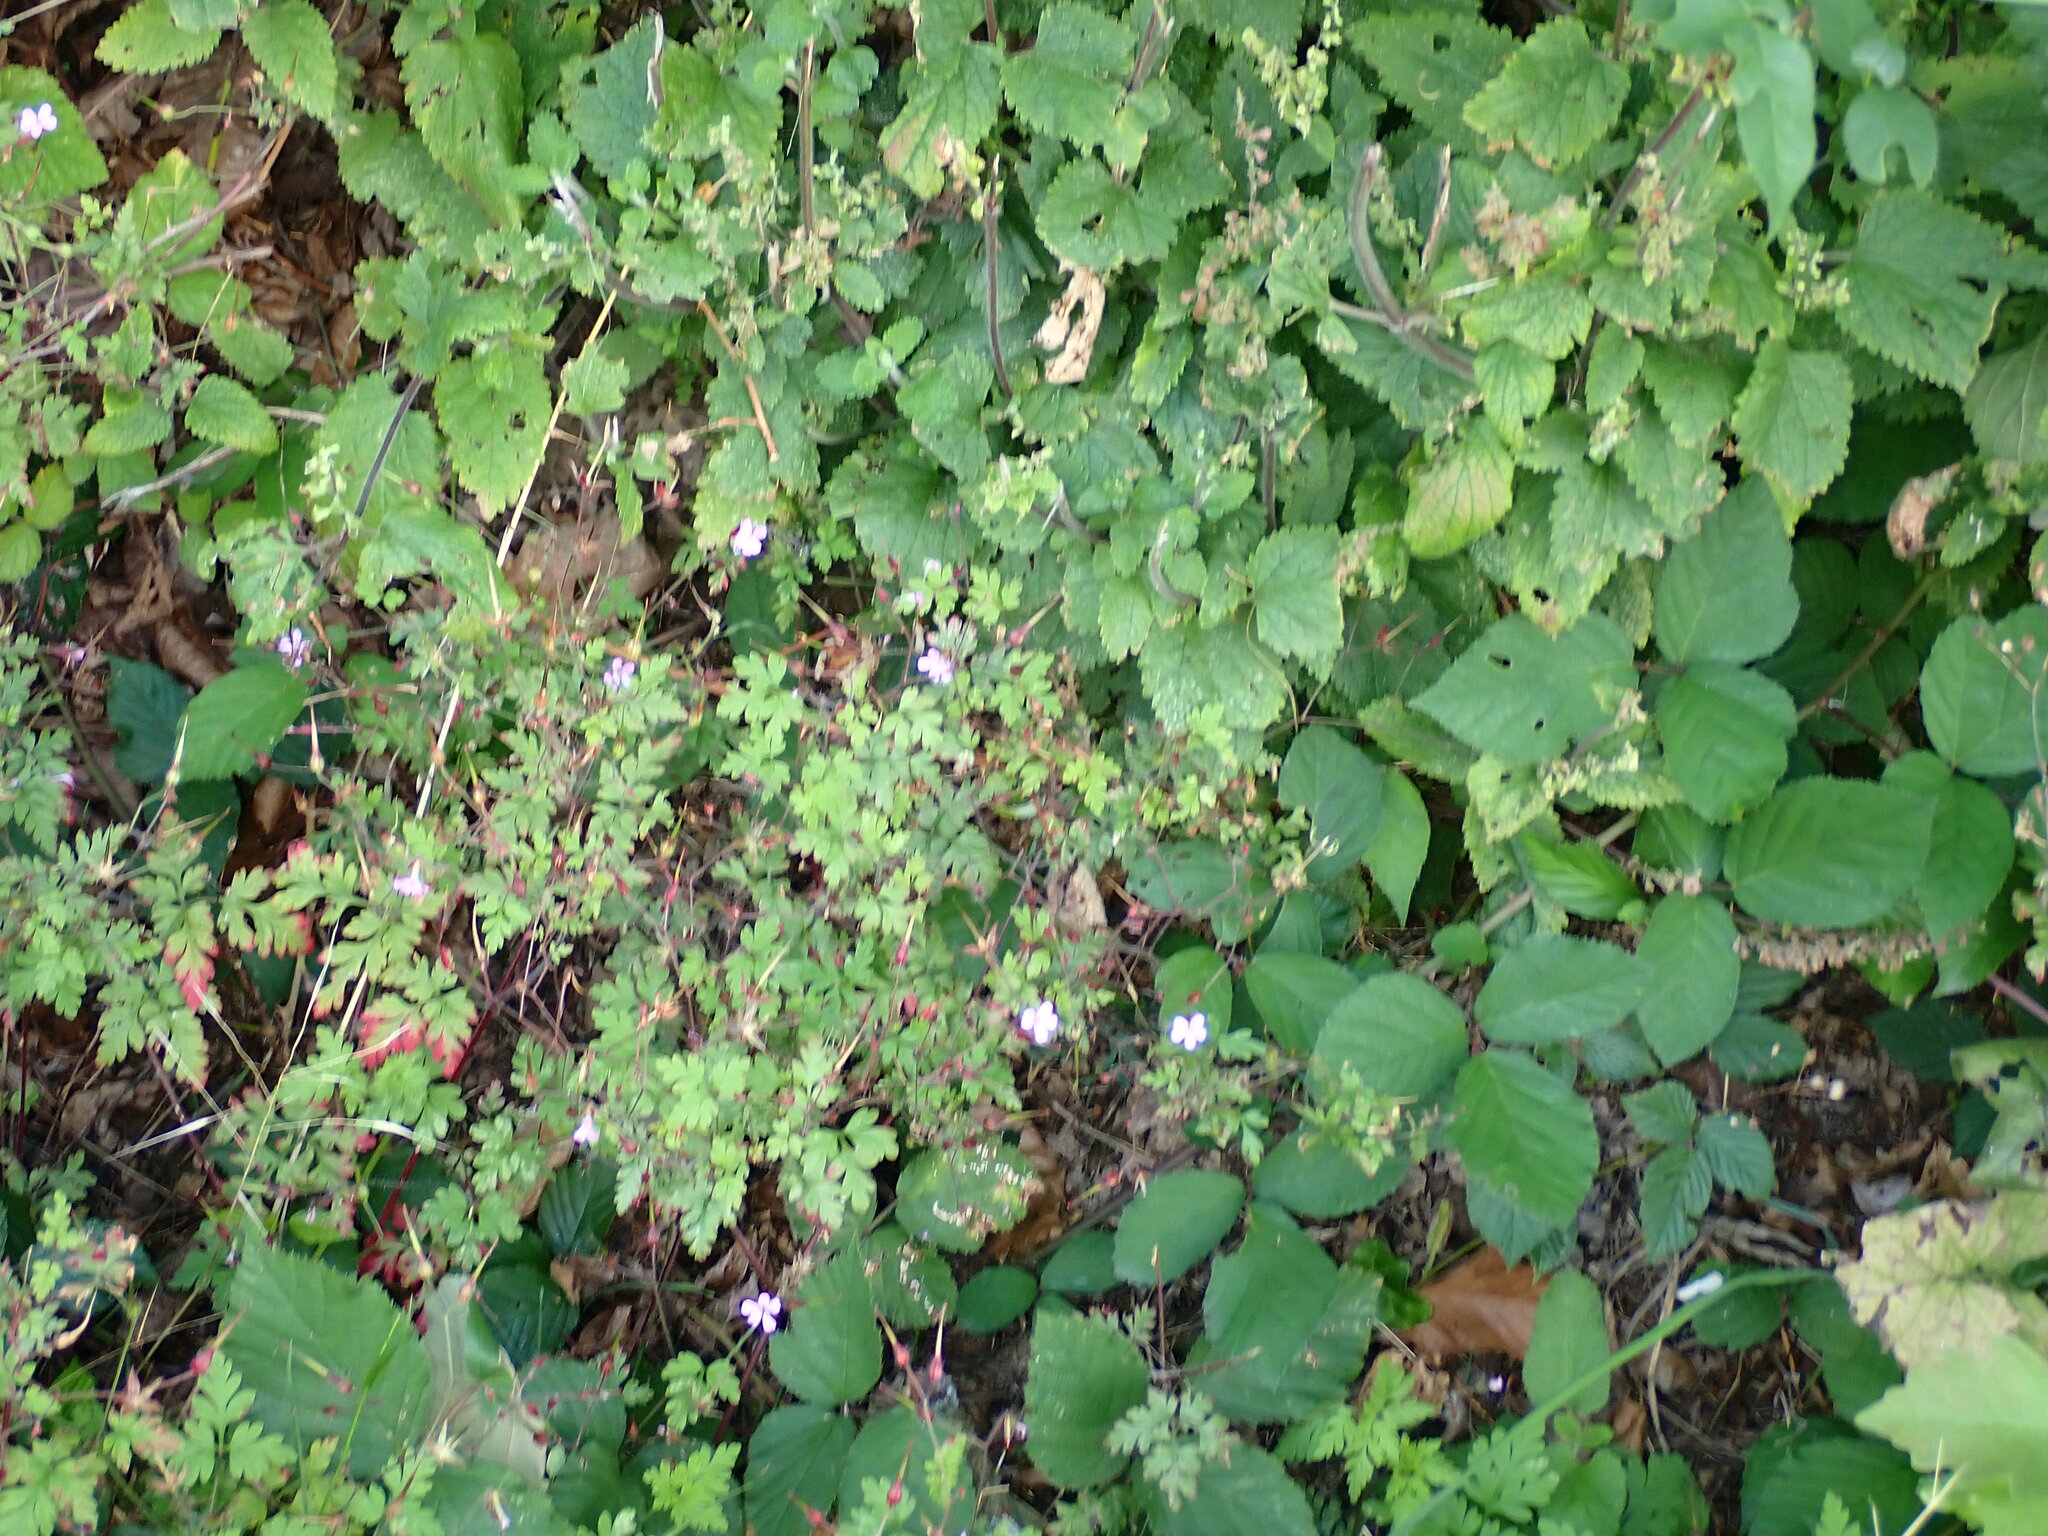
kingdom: Plantae
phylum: Tracheophyta
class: Magnoliopsida
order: Geraniales
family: Geraniaceae
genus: Geranium
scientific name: Geranium robertianum
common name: Herb-robert
